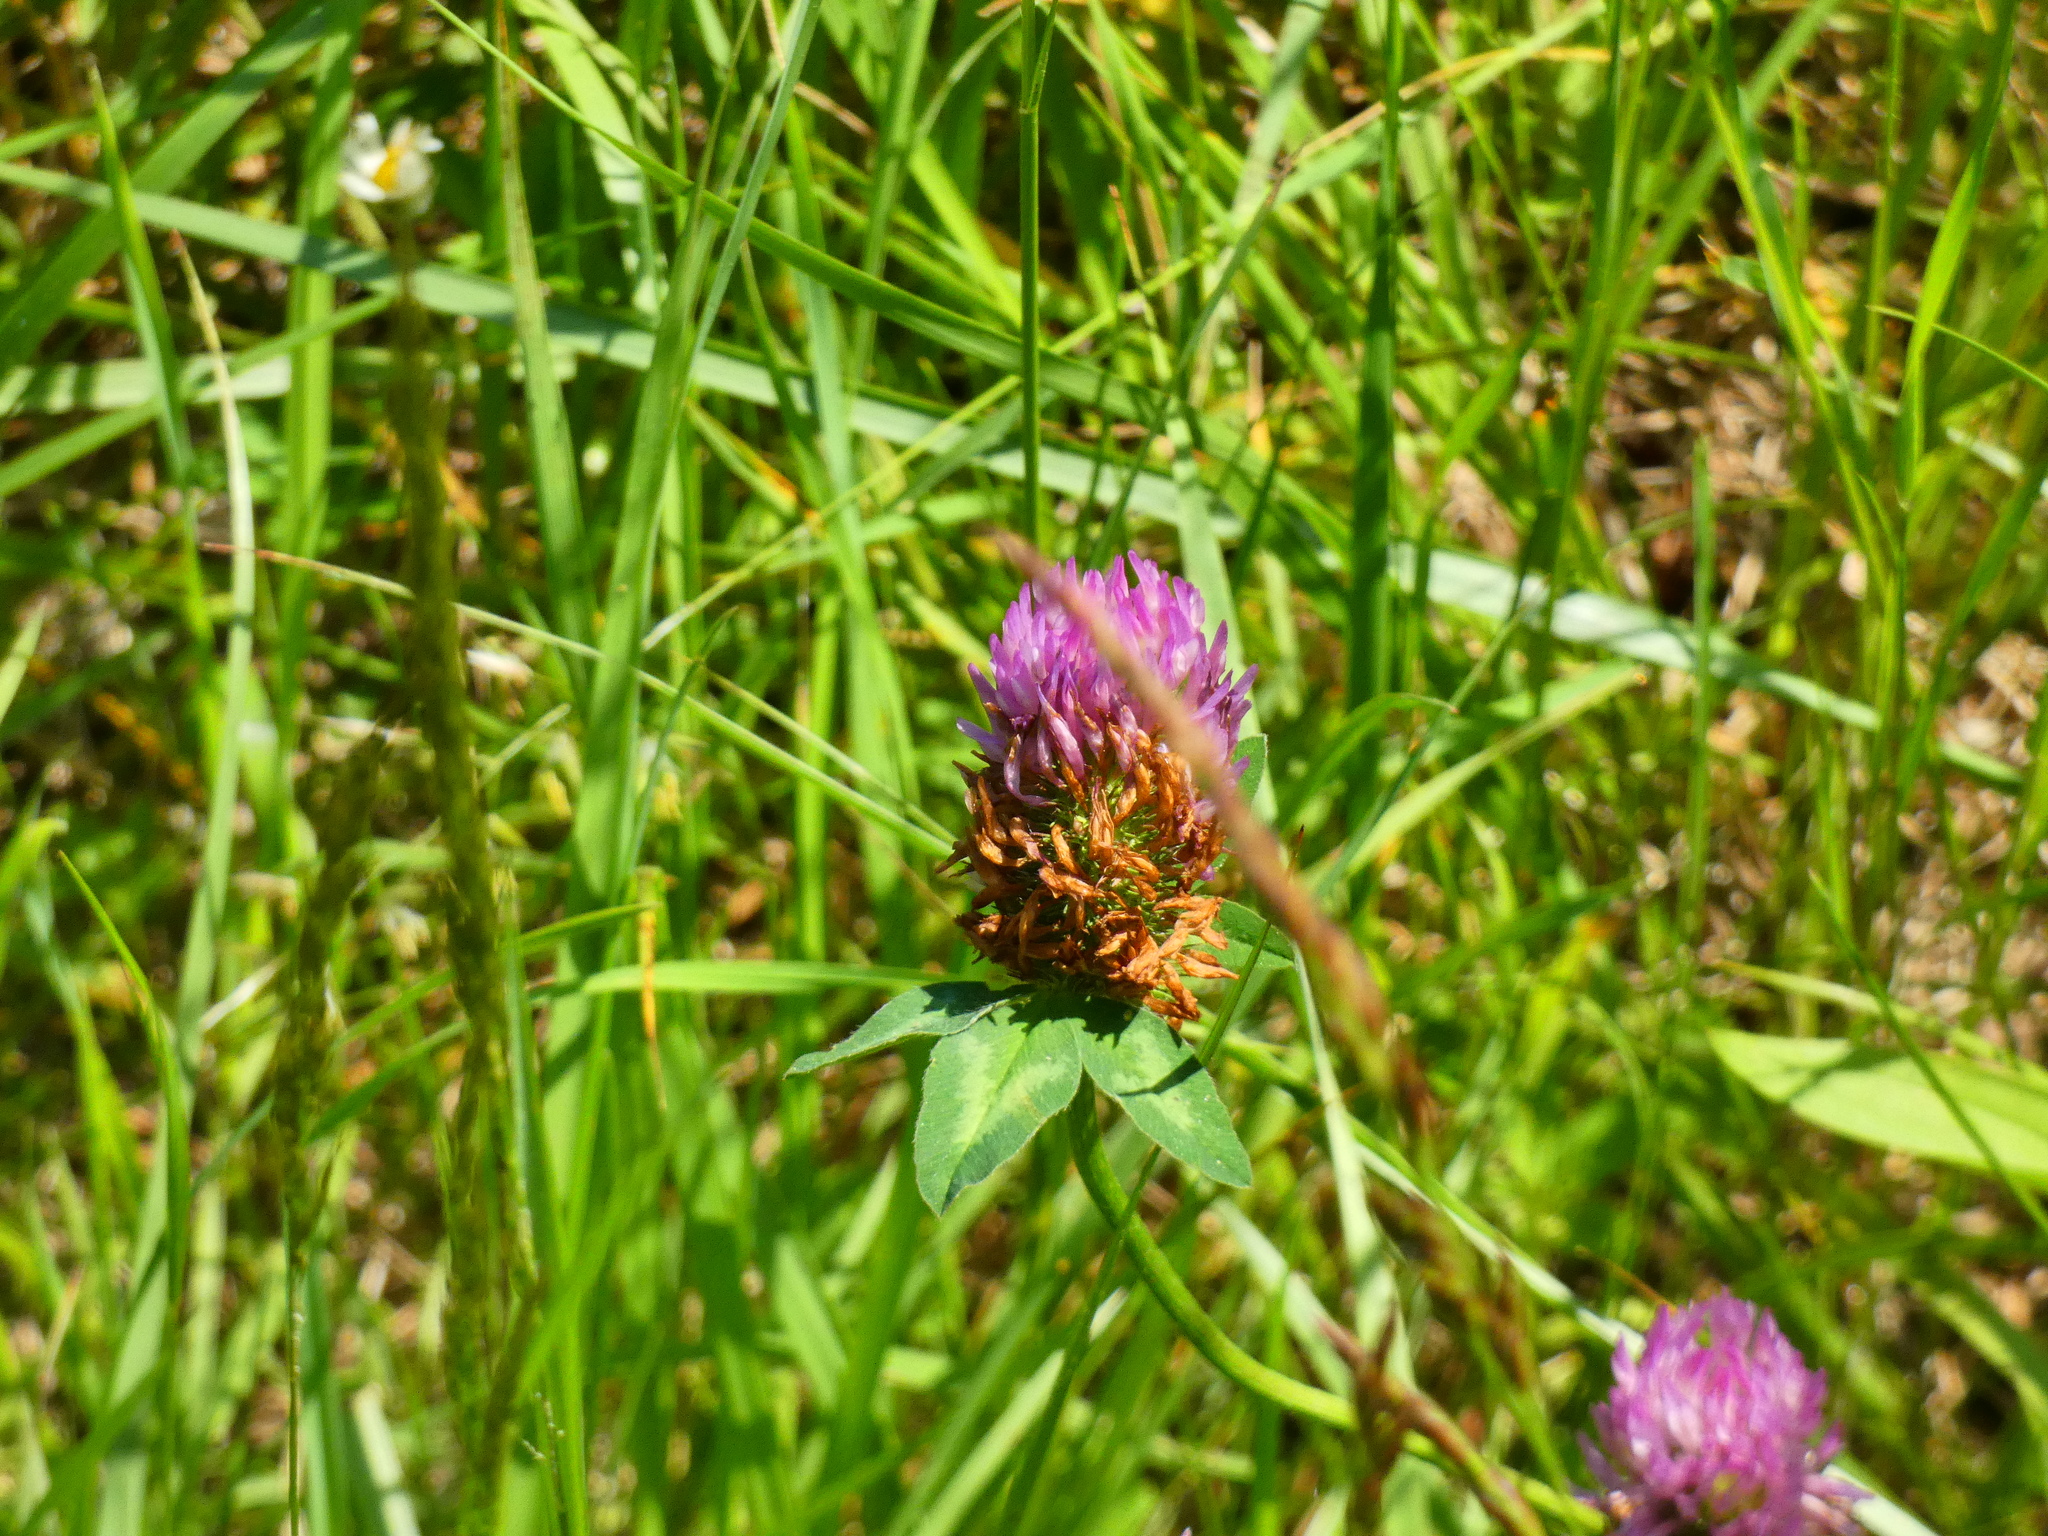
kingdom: Plantae
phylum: Tracheophyta
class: Magnoliopsida
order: Fabales
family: Fabaceae
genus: Trifolium
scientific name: Trifolium pratense
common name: Red clover
